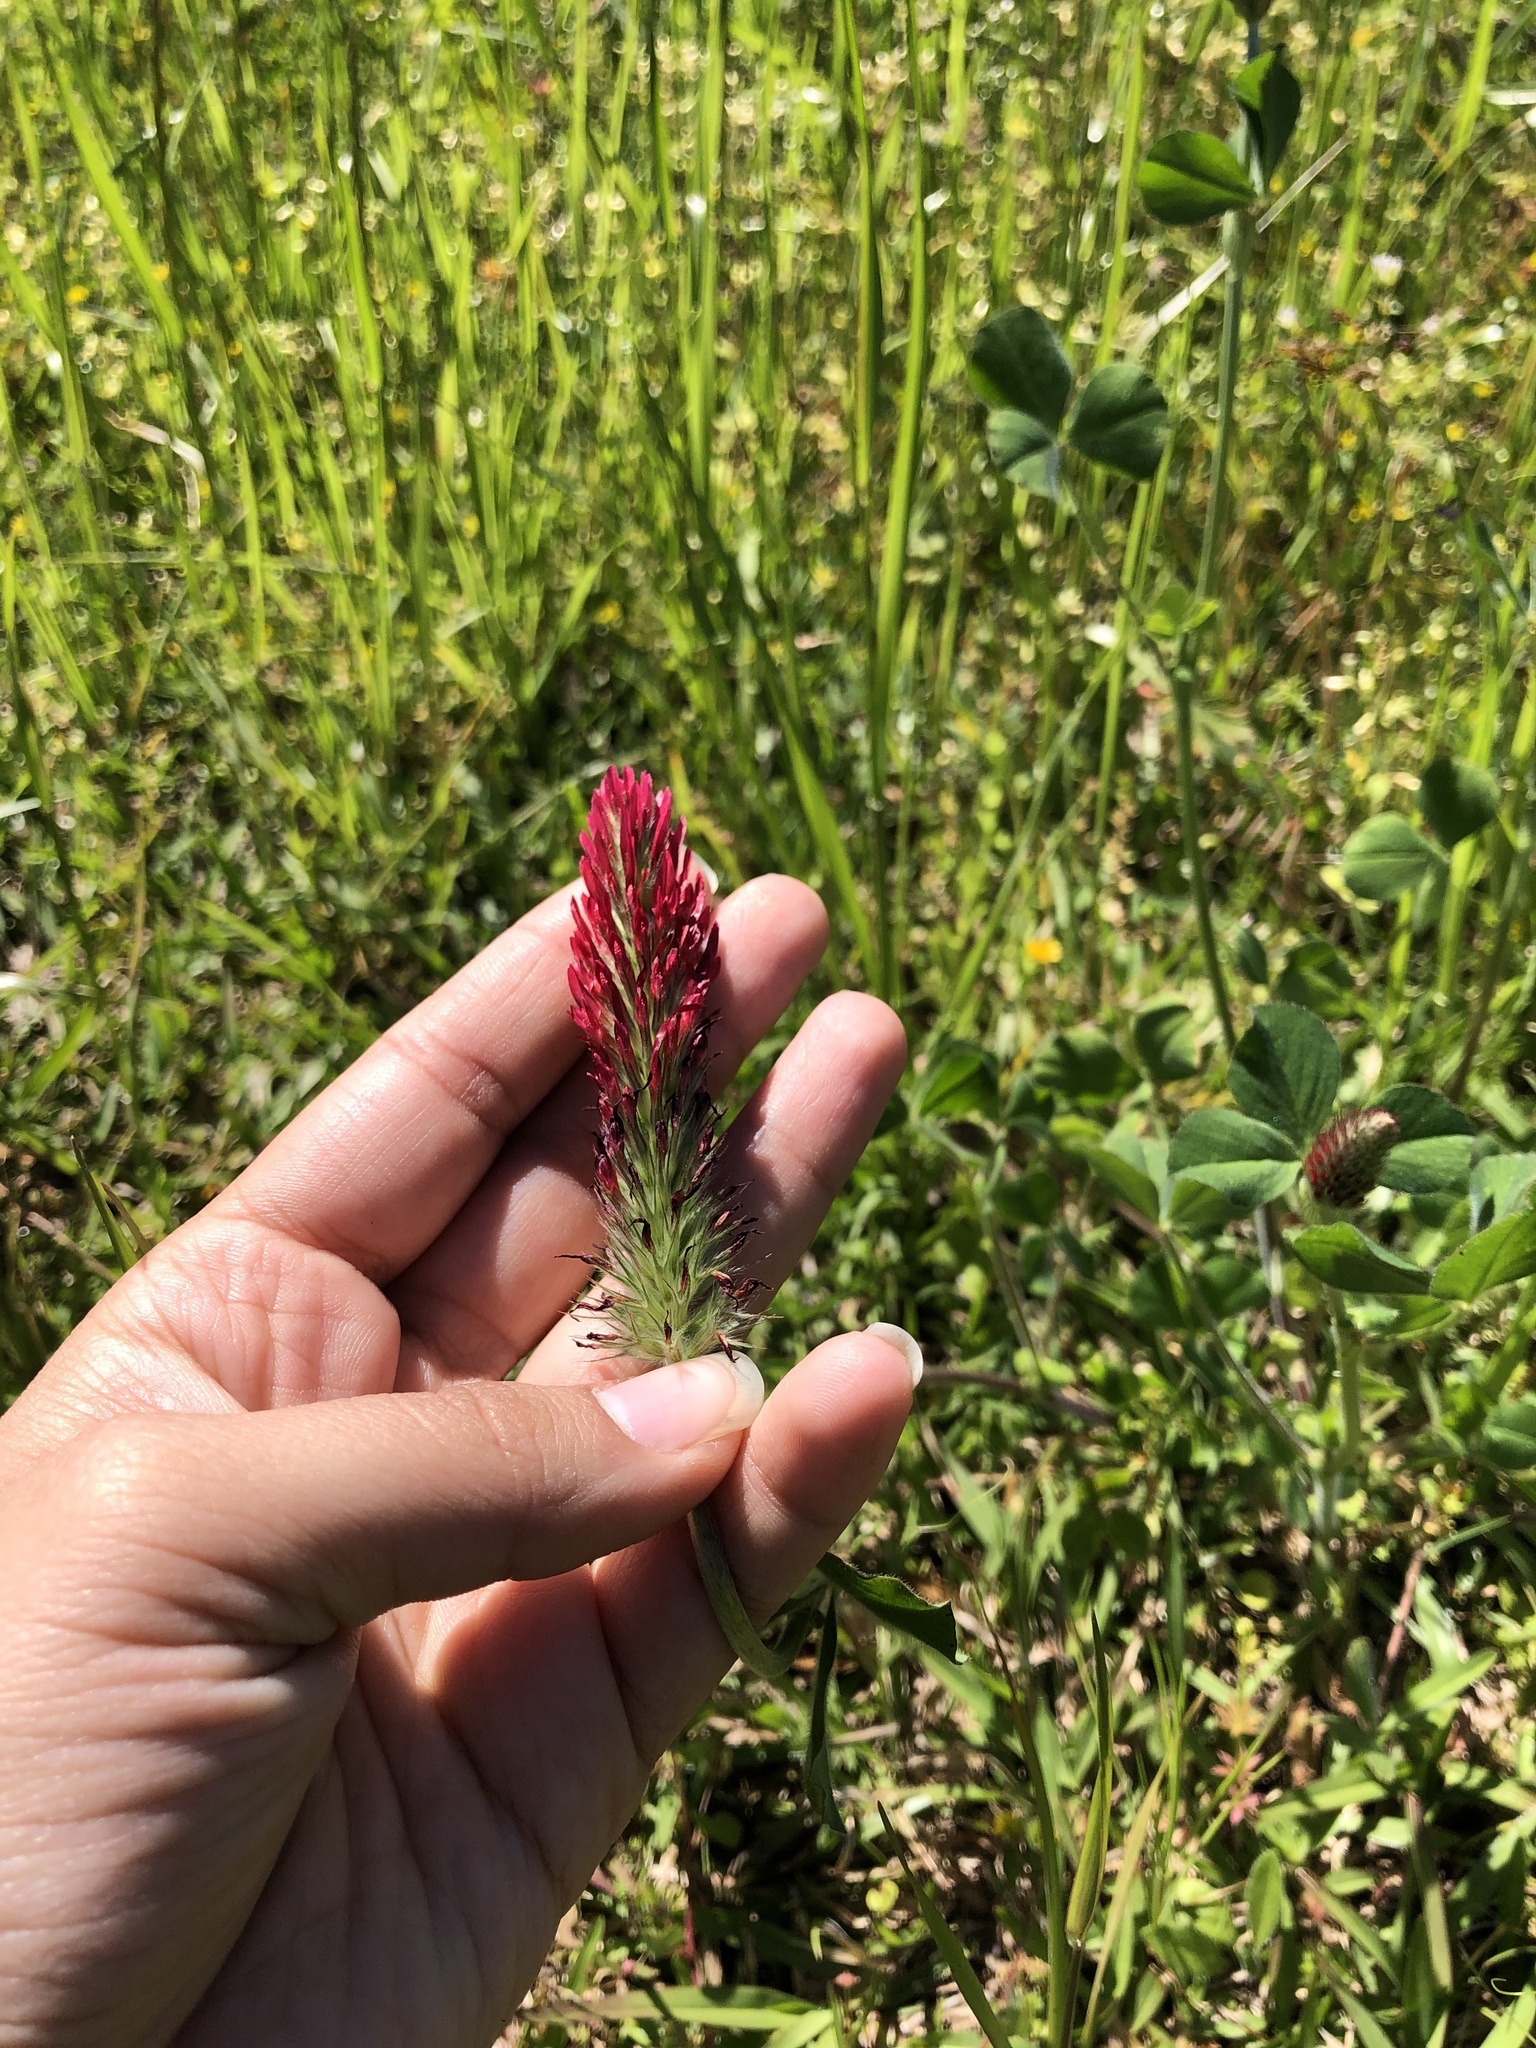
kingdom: Plantae
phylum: Tracheophyta
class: Magnoliopsida
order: Fabales
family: Fabaceae
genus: Trifolium
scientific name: Trifolium incarnatum
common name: Crimson clover
